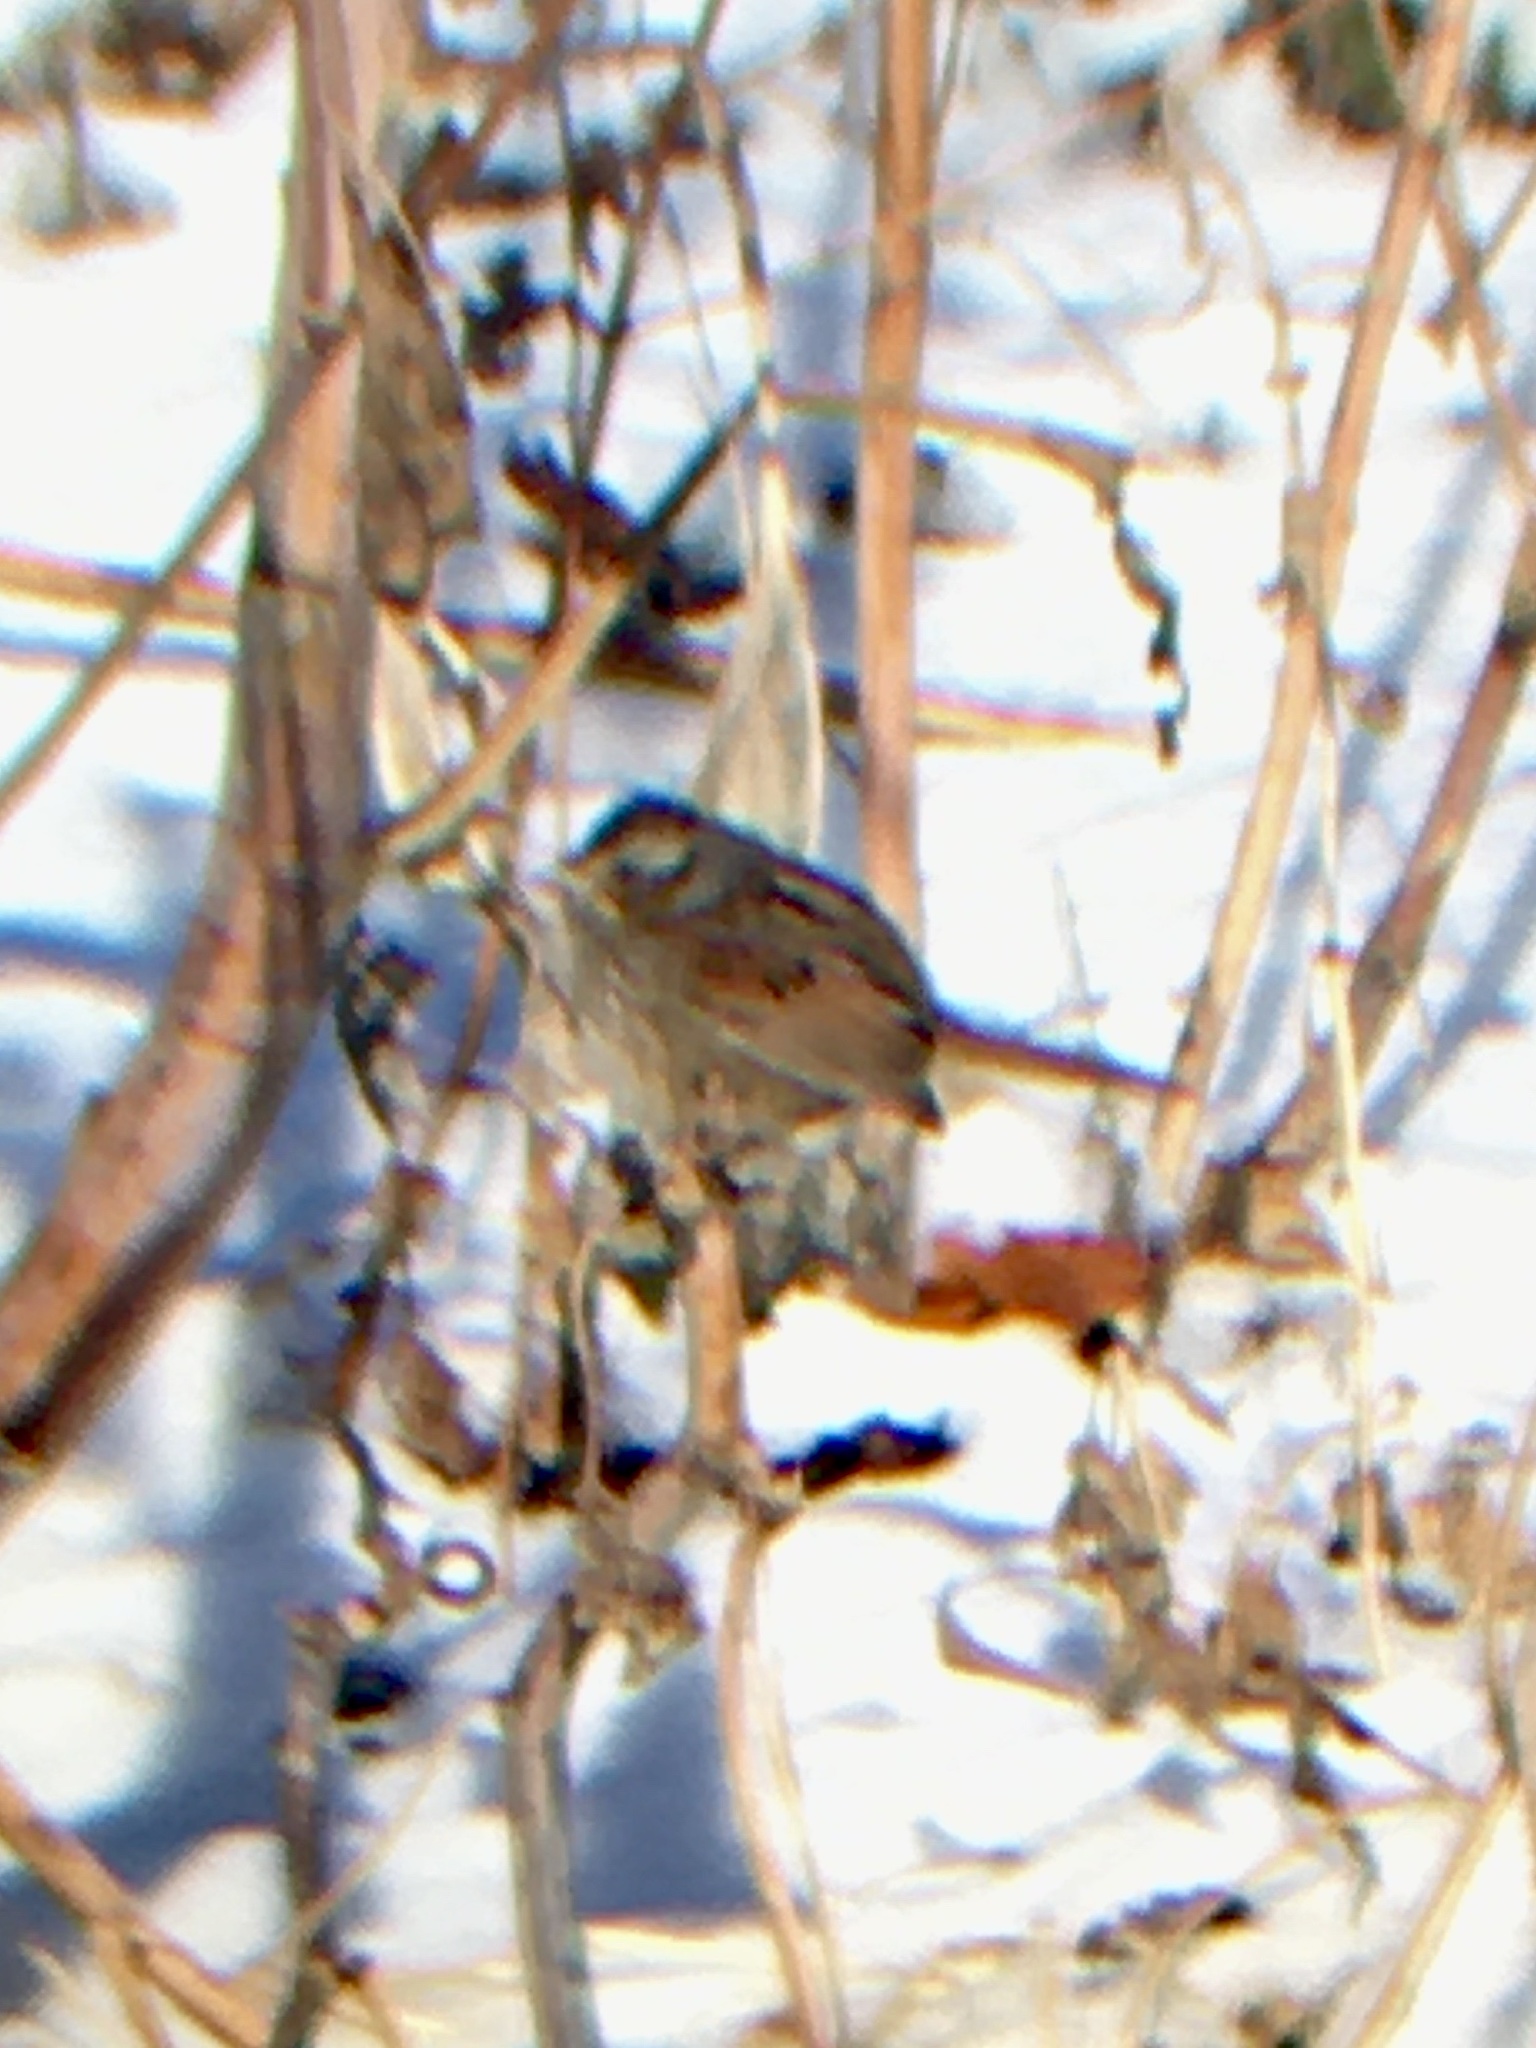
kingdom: Animalia
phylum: Chordata
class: Aves
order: Passeriformes
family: Passerellidae
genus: Melospiza
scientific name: Melospiza georgiana
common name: Swamp sparrow
